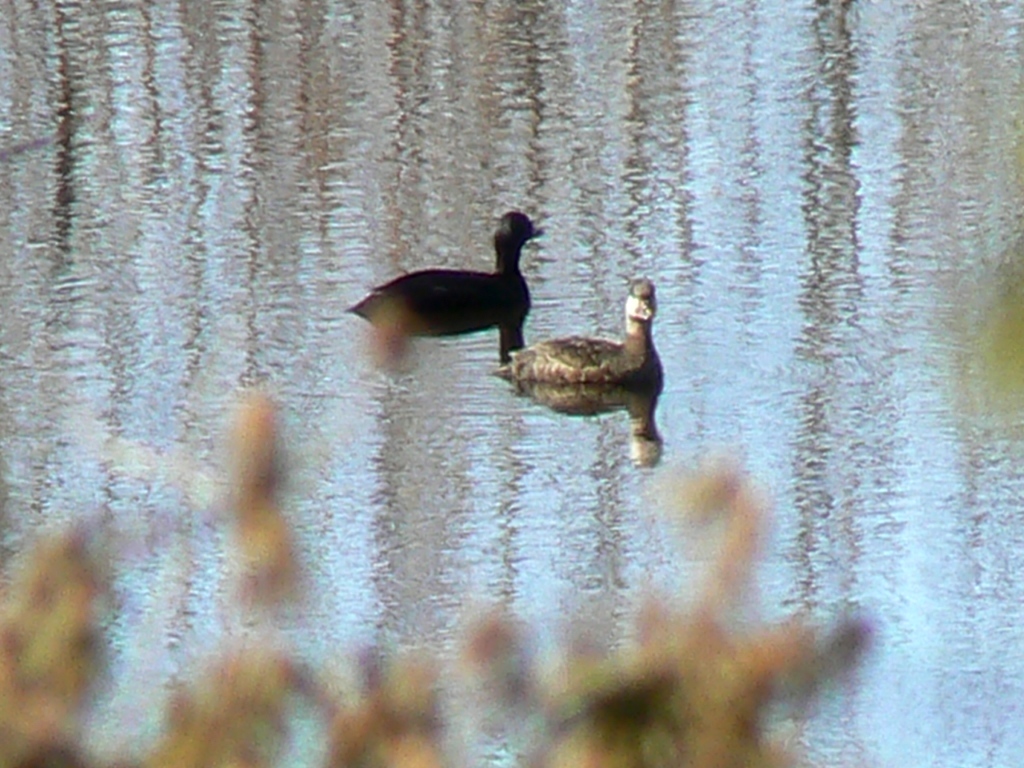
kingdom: Animalia
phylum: Chordata
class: Aves
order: Anseriformes
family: Anatidae
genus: Melanitta
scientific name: Melanitta nigra
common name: Common scoter
